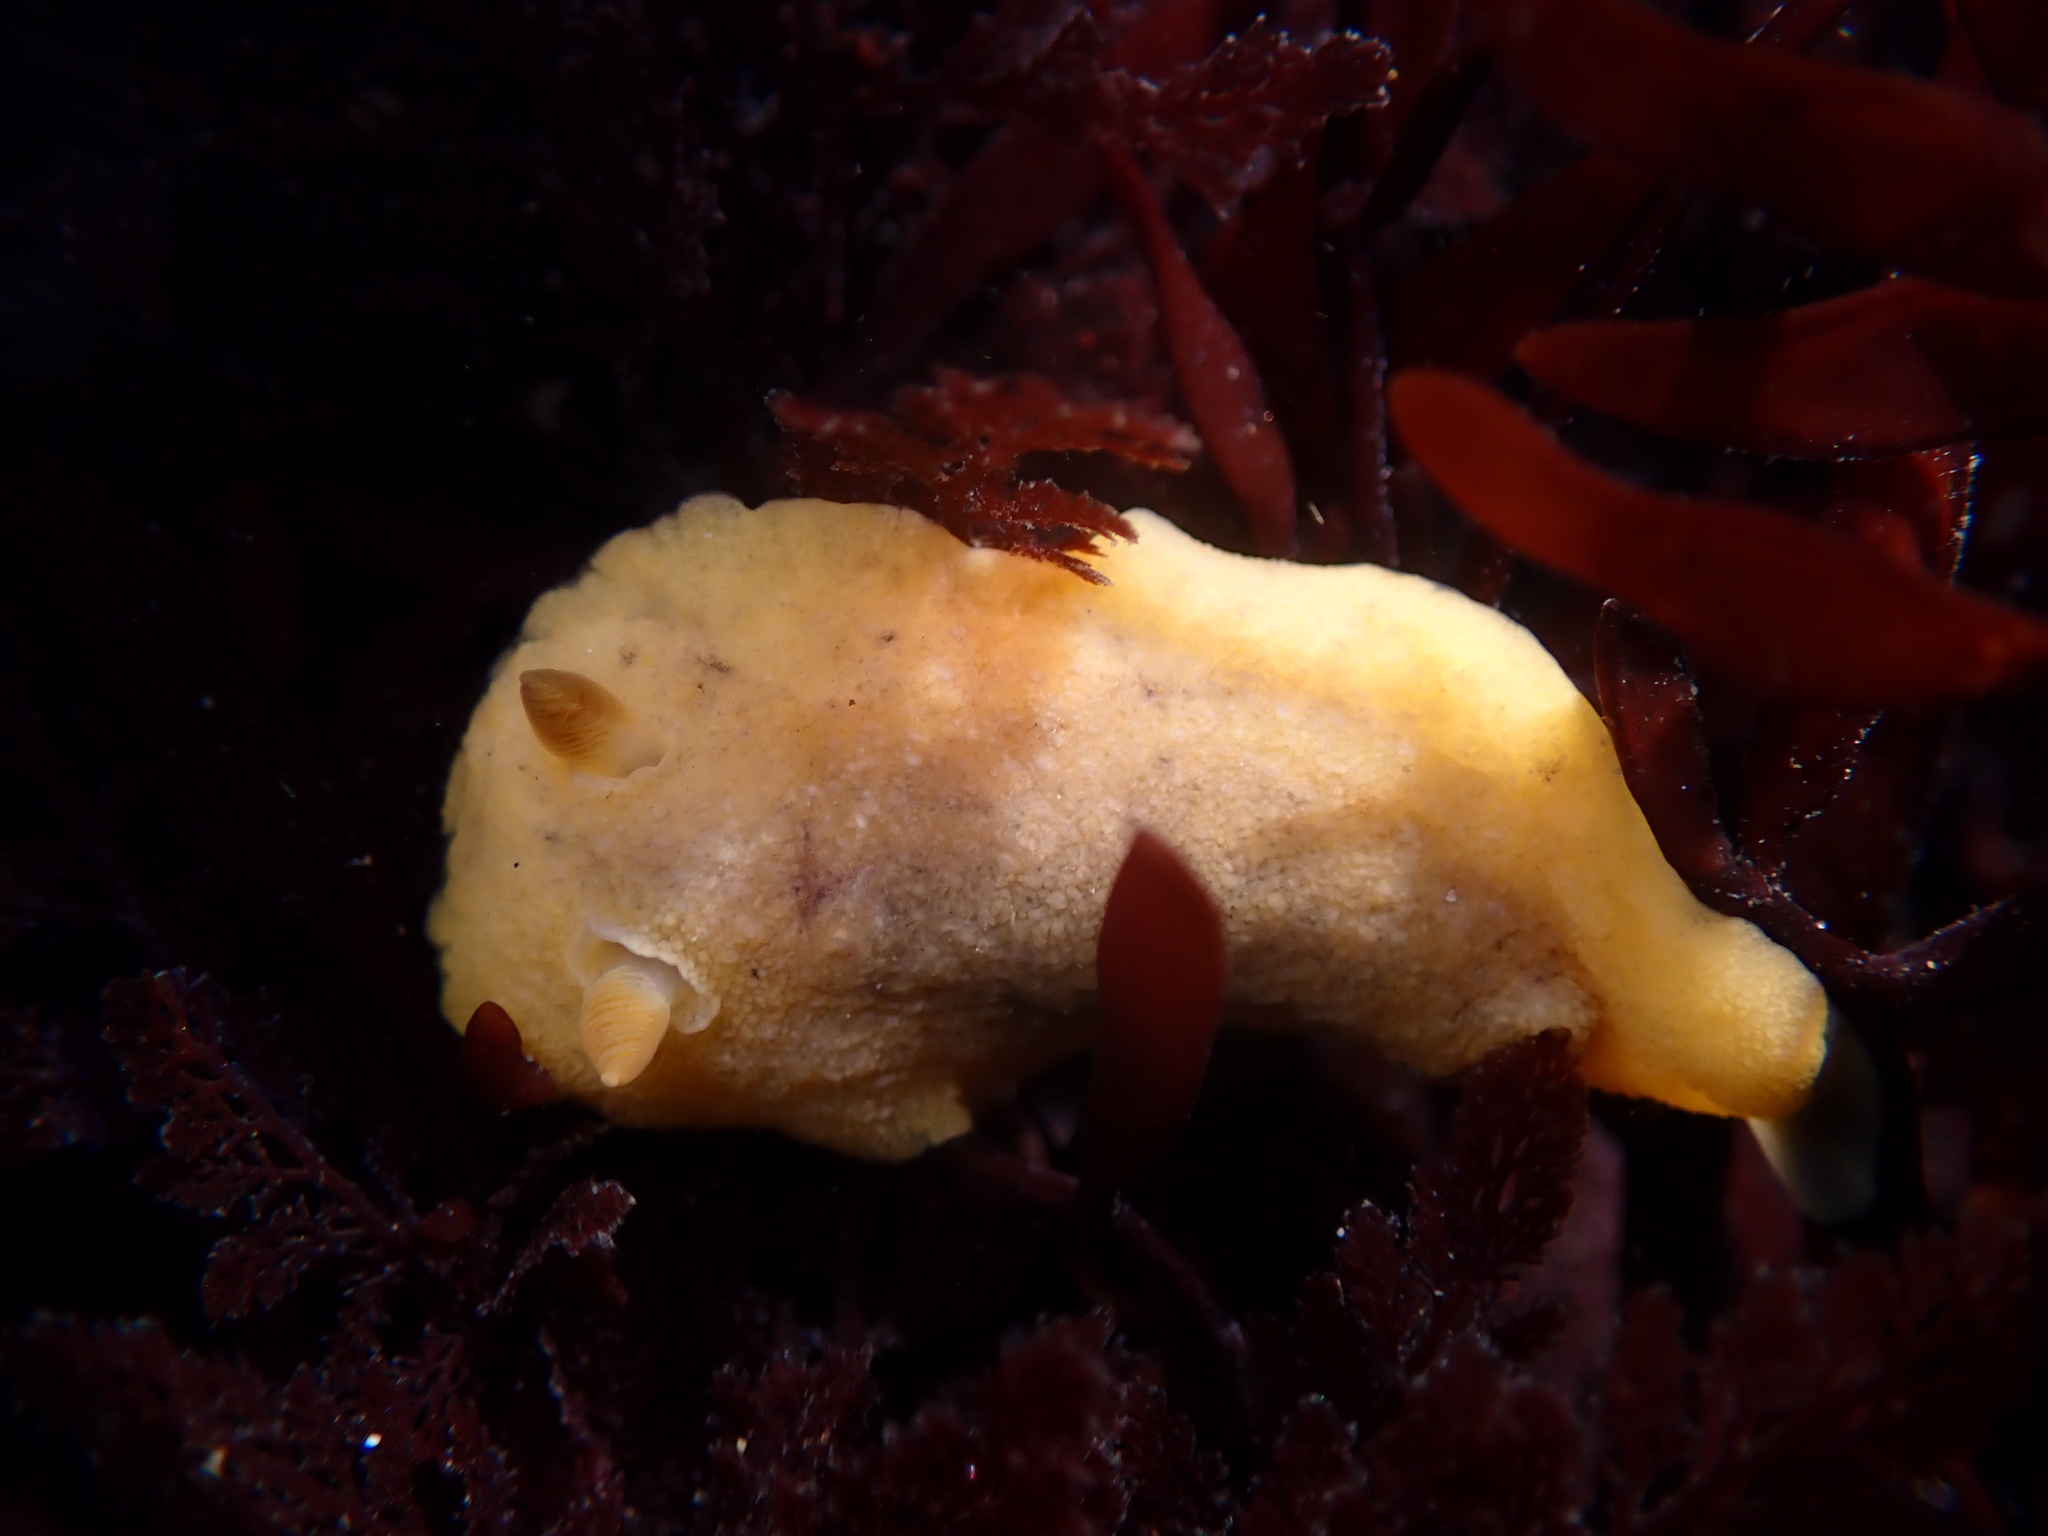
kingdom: Animalia
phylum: Mollusca
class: Gastropoda
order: Nudibranchia
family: Discodorididae
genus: Geitodoris
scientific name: Geitodoris heathi
